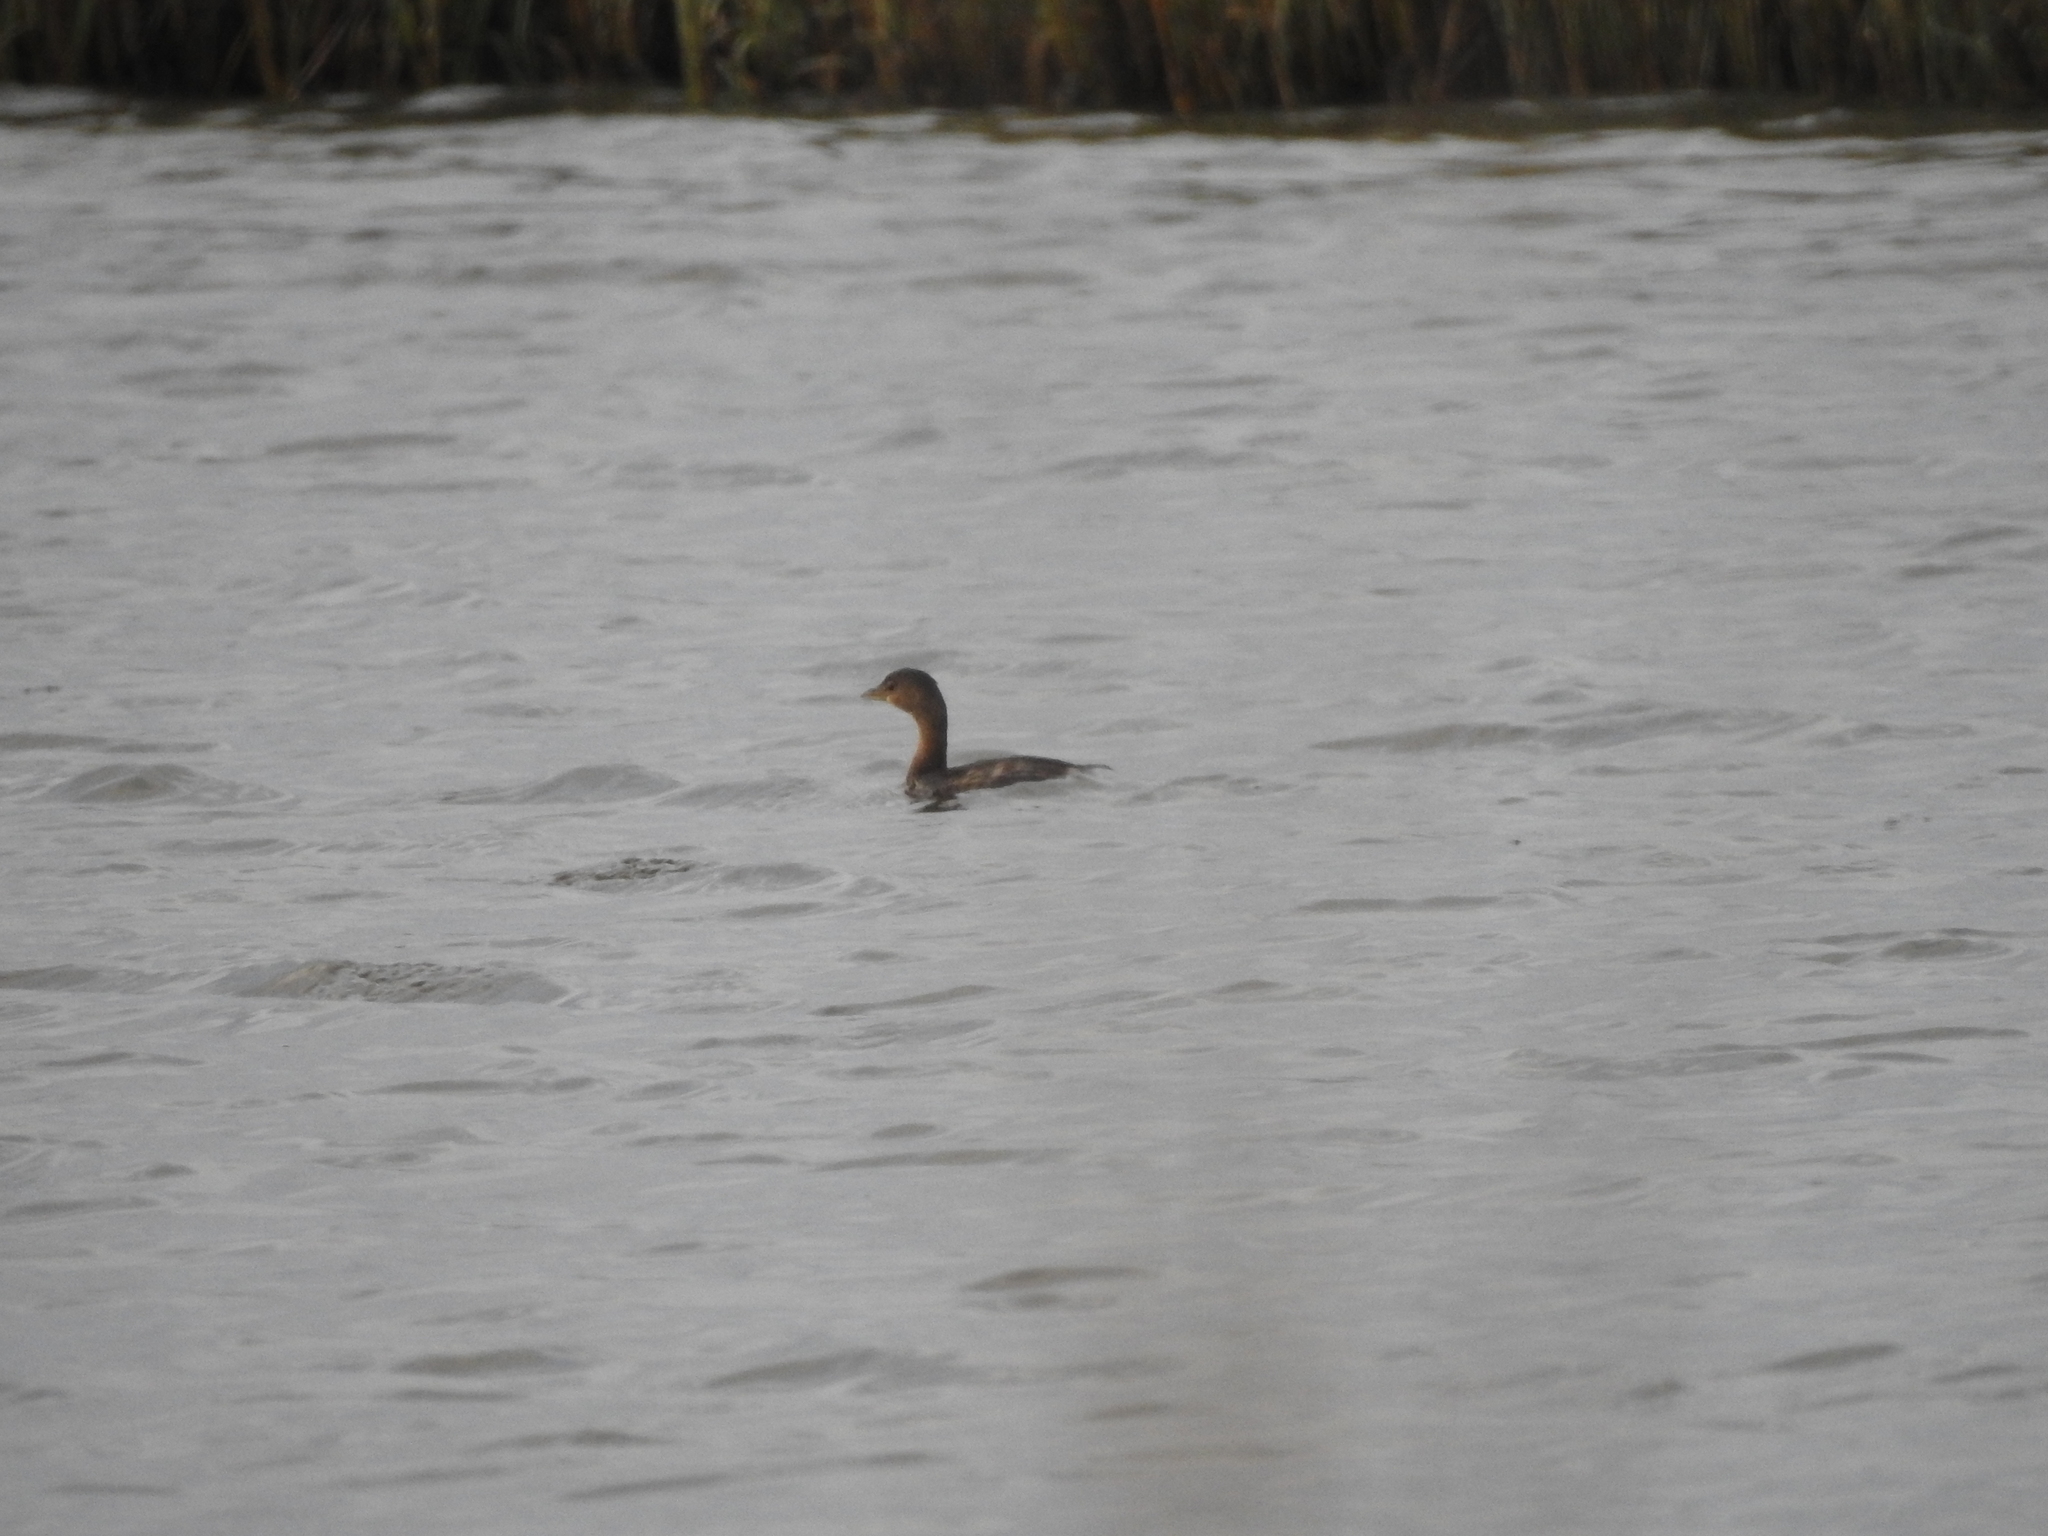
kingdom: Animalia
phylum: Chordata
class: Aves
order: Podicipediformes
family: Podicipedidae
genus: Podilymbus
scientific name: Podilymbus podiceps
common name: Pied-billed grebe
